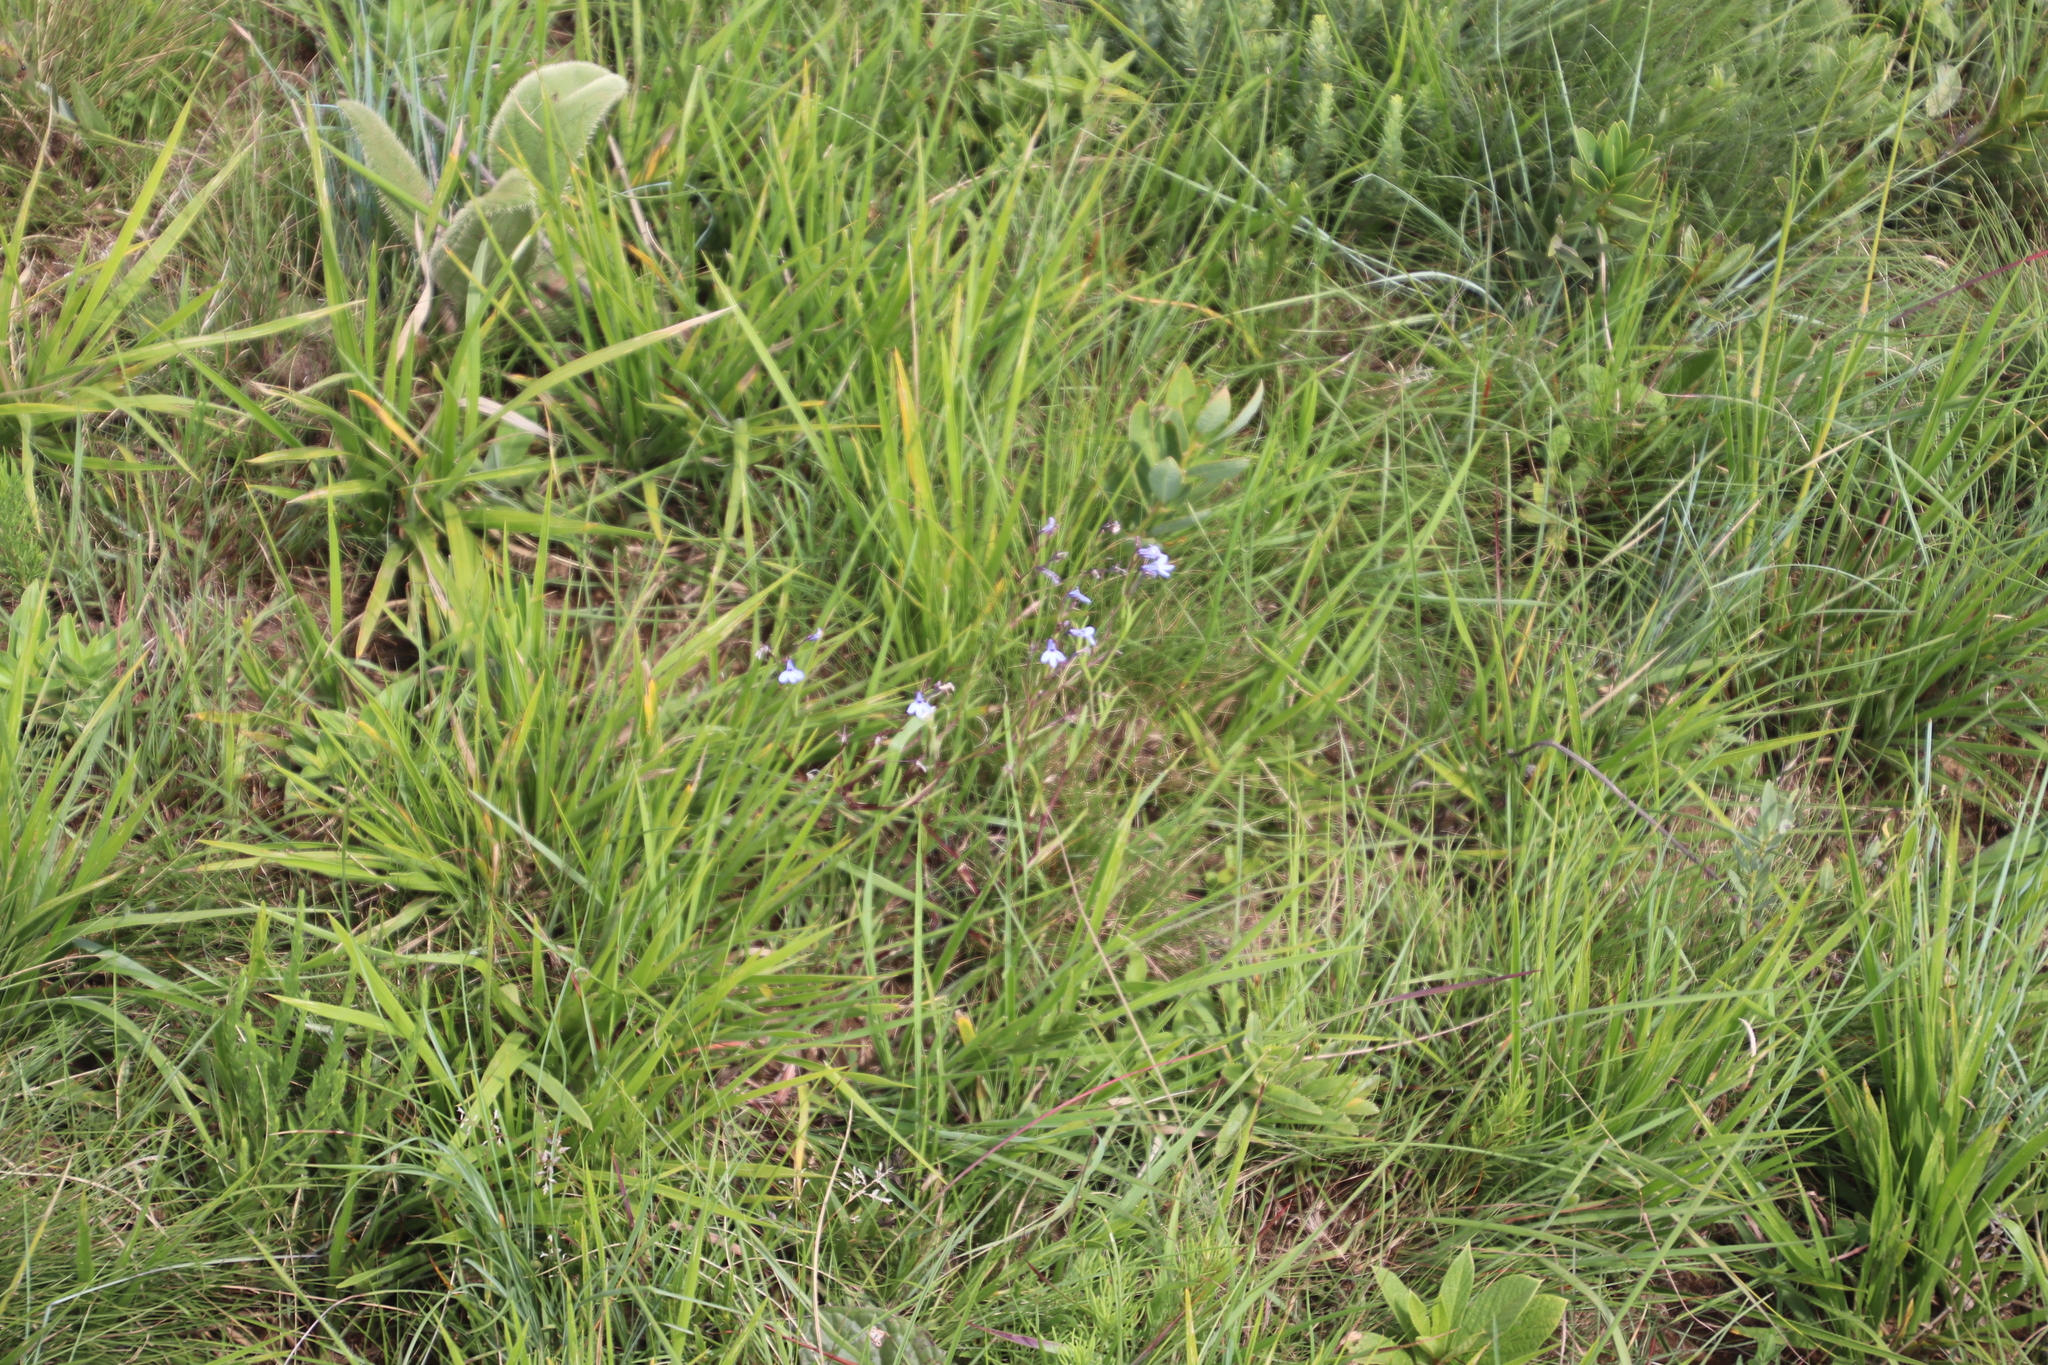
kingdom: Plantae
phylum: Tracheophyta
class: Magnoliopsida
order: Asterales
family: Campanulaceae
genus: Lobelia
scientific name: Lobelia flaccida
